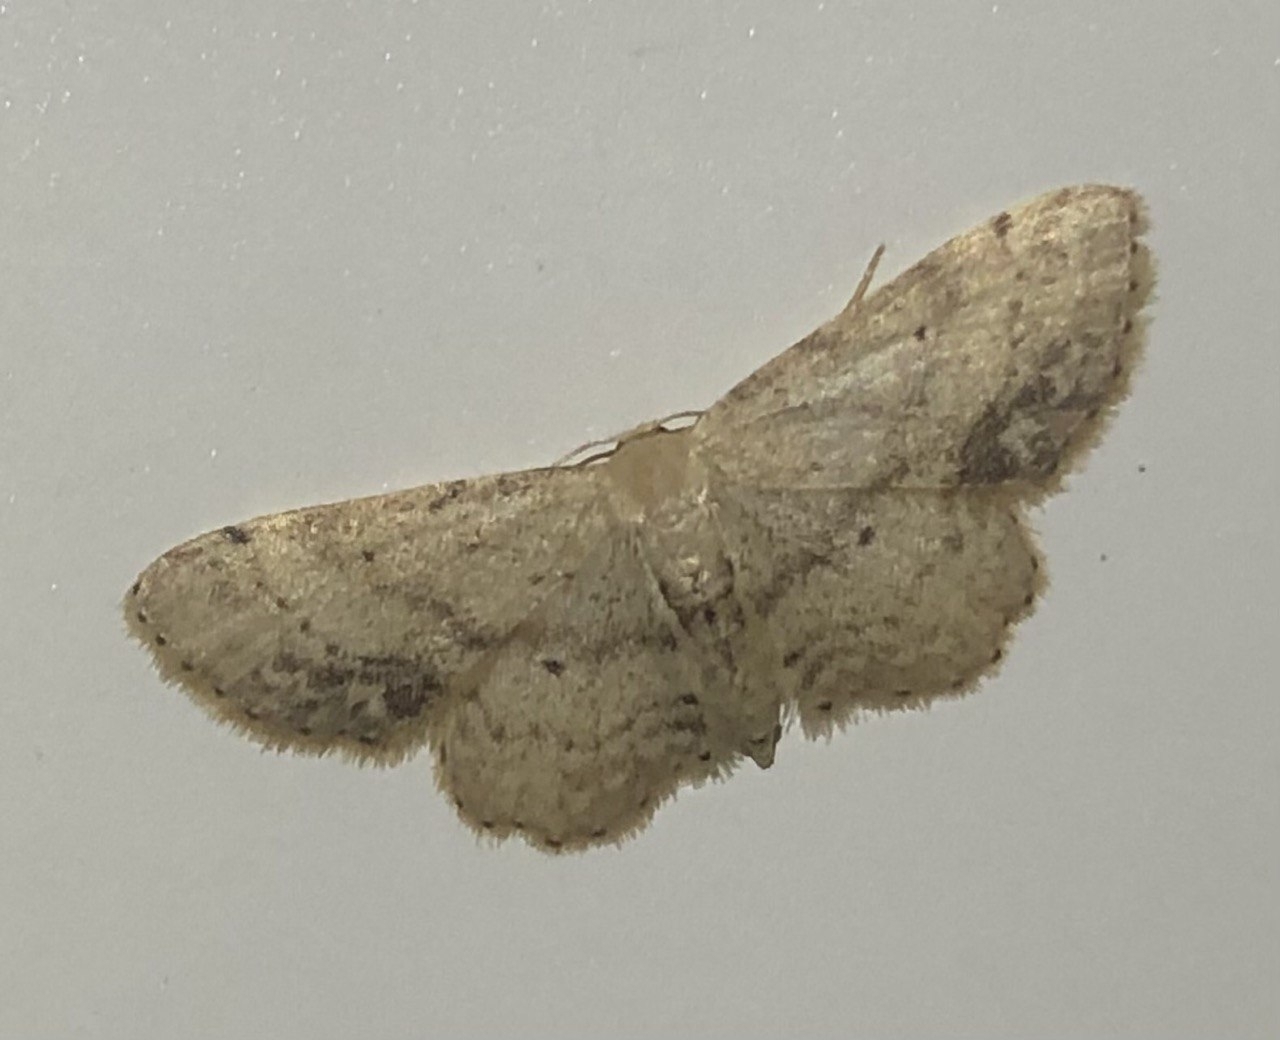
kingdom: Animalia
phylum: Arthropoda
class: Insecta
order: Lepidoptera
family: Geometridae
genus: Idaea
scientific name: Idaea dimidiata
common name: Single-dotted wave
